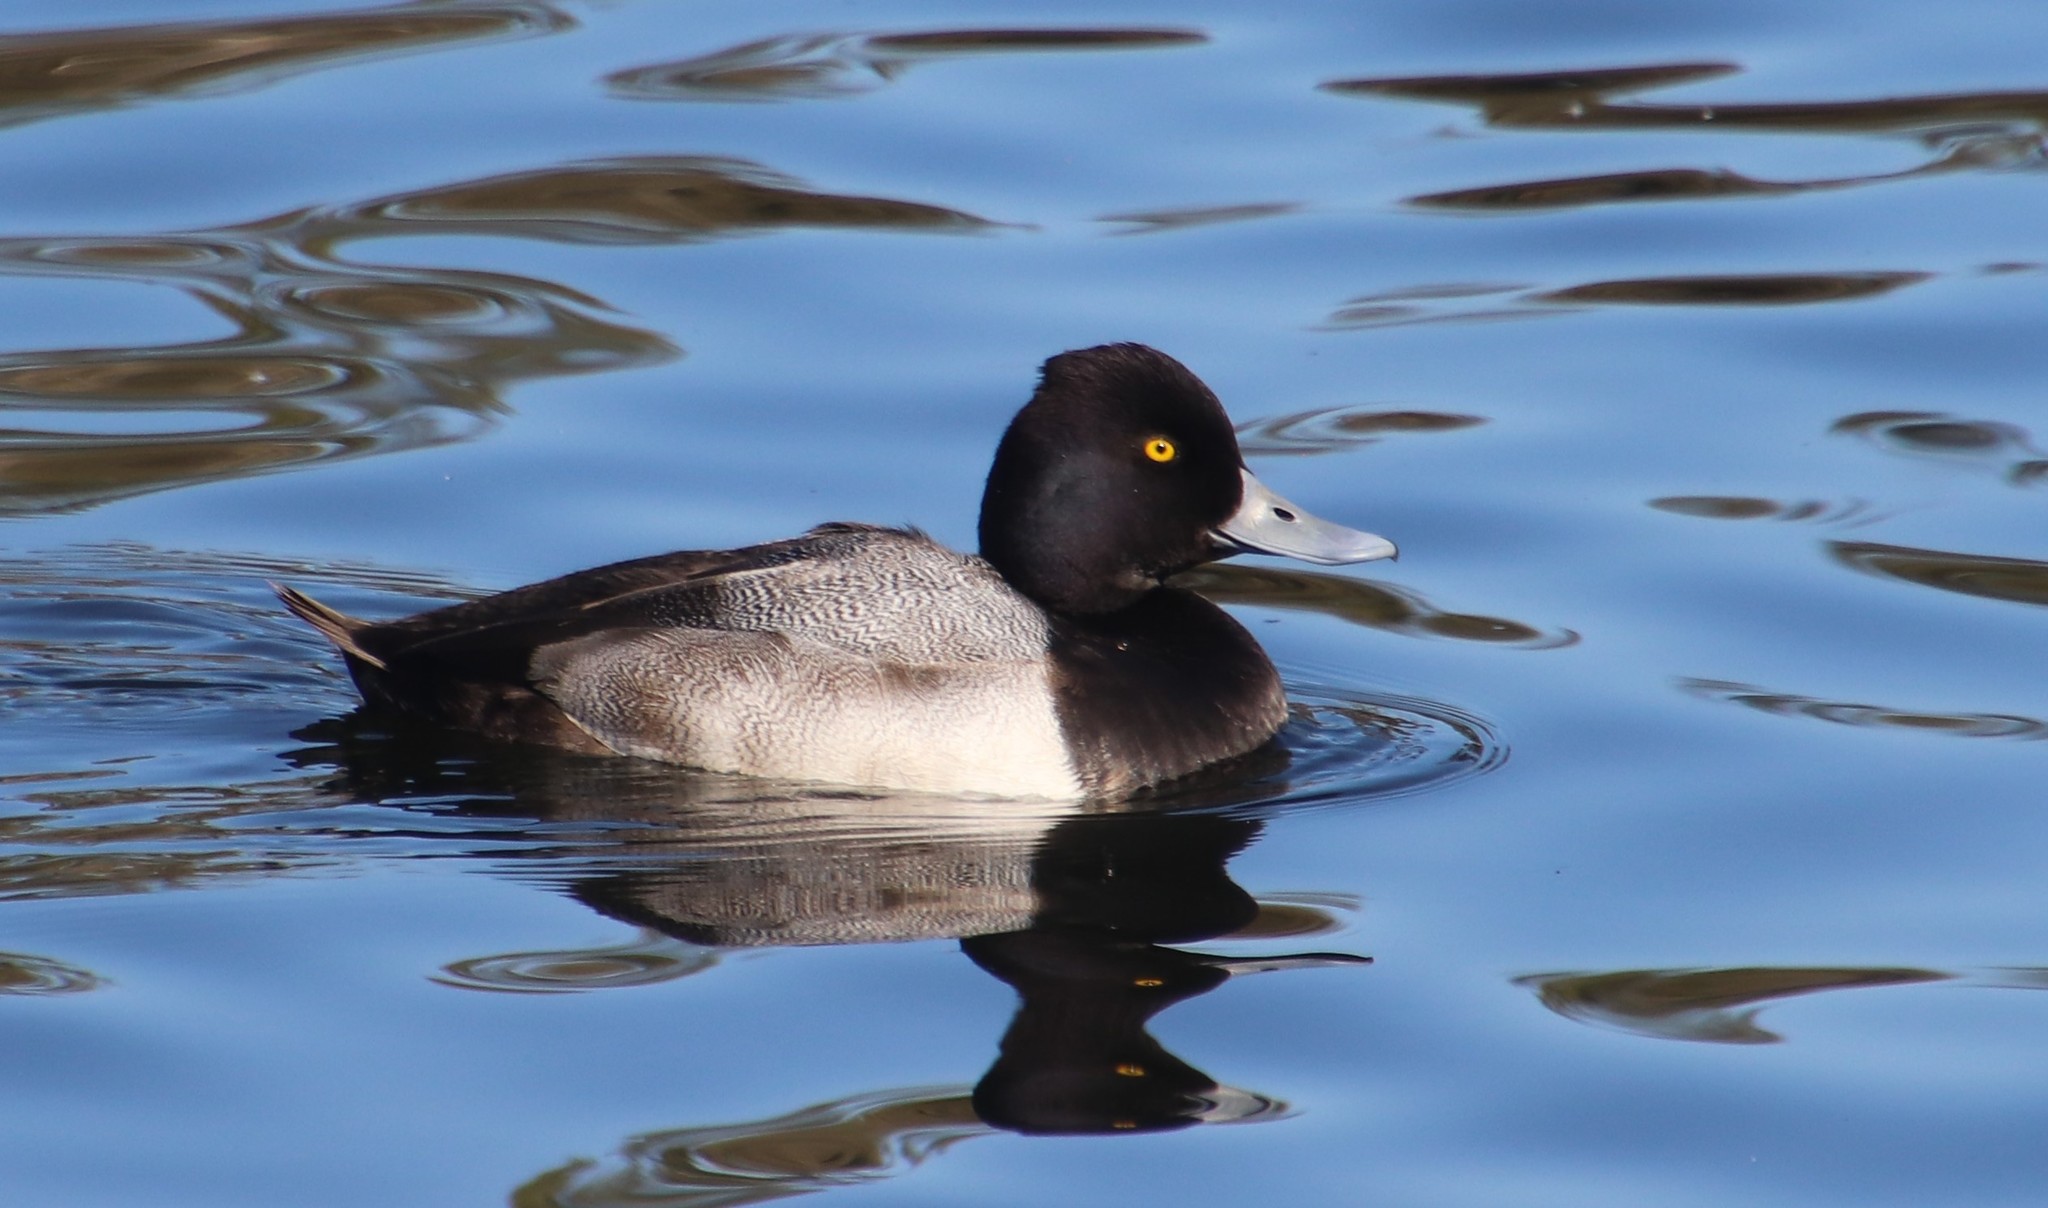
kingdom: Animalia
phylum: Chordata
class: Aves
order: Anseriformes
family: Anatidae
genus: Aythya
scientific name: Aythya affinis
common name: Lesser scaup
